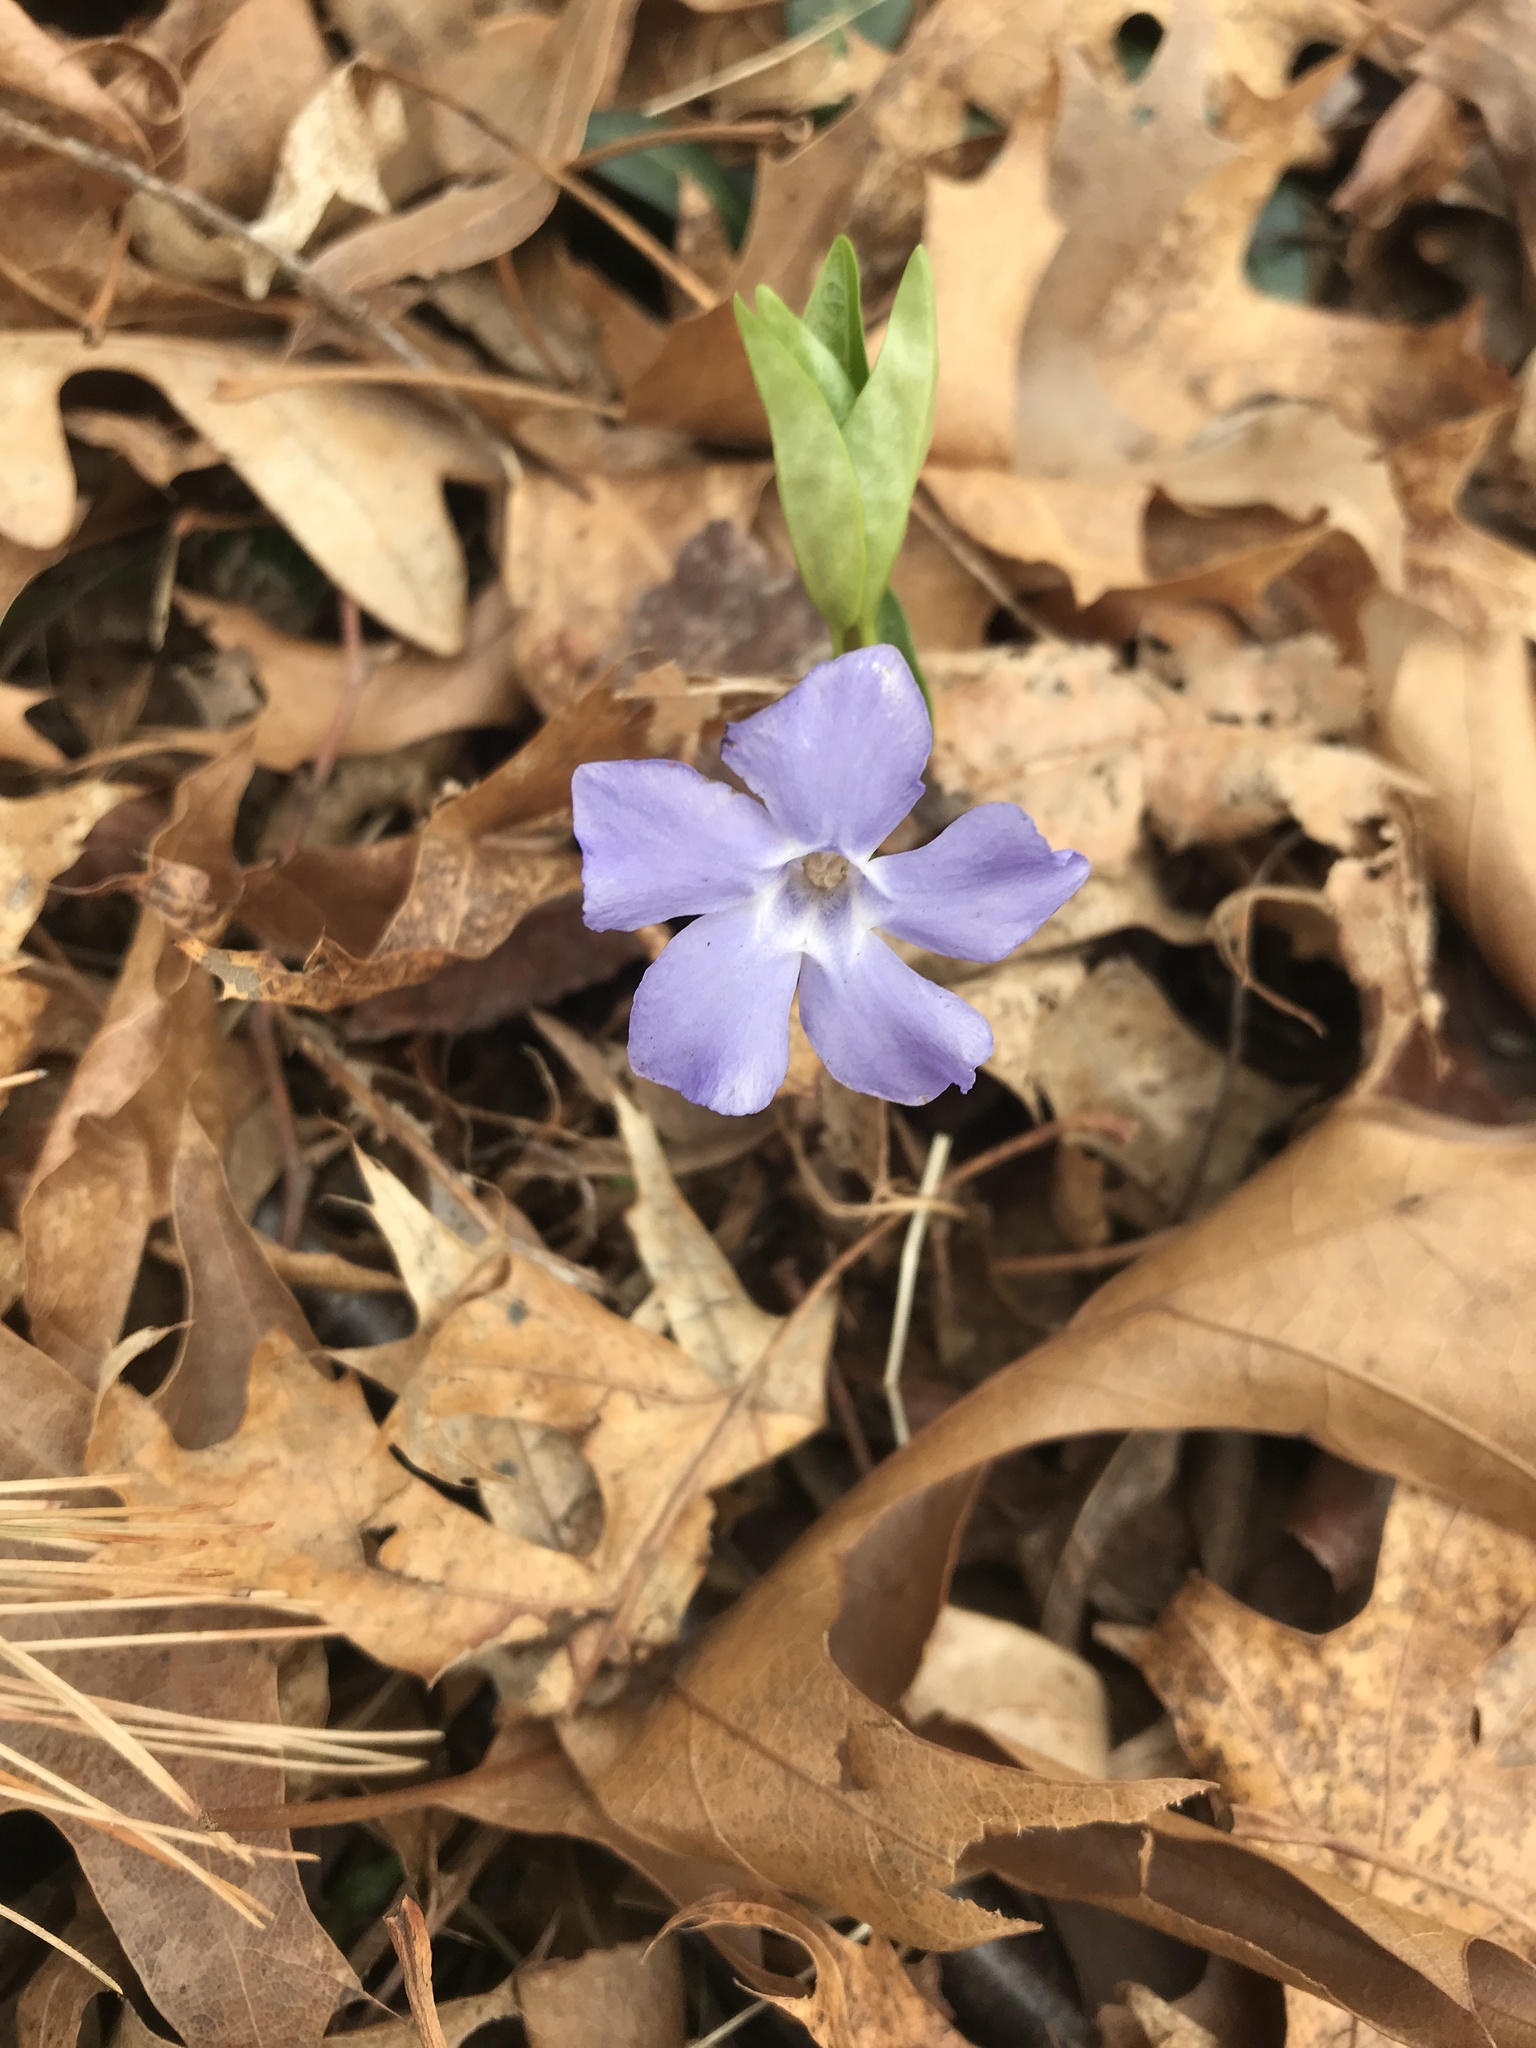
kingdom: Plantae
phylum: Tracheophyta
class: Magnoliopsida
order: Gentianales
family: Apocynaceae
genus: Vinca
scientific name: Vinca minor
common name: Lesser periwinkle
